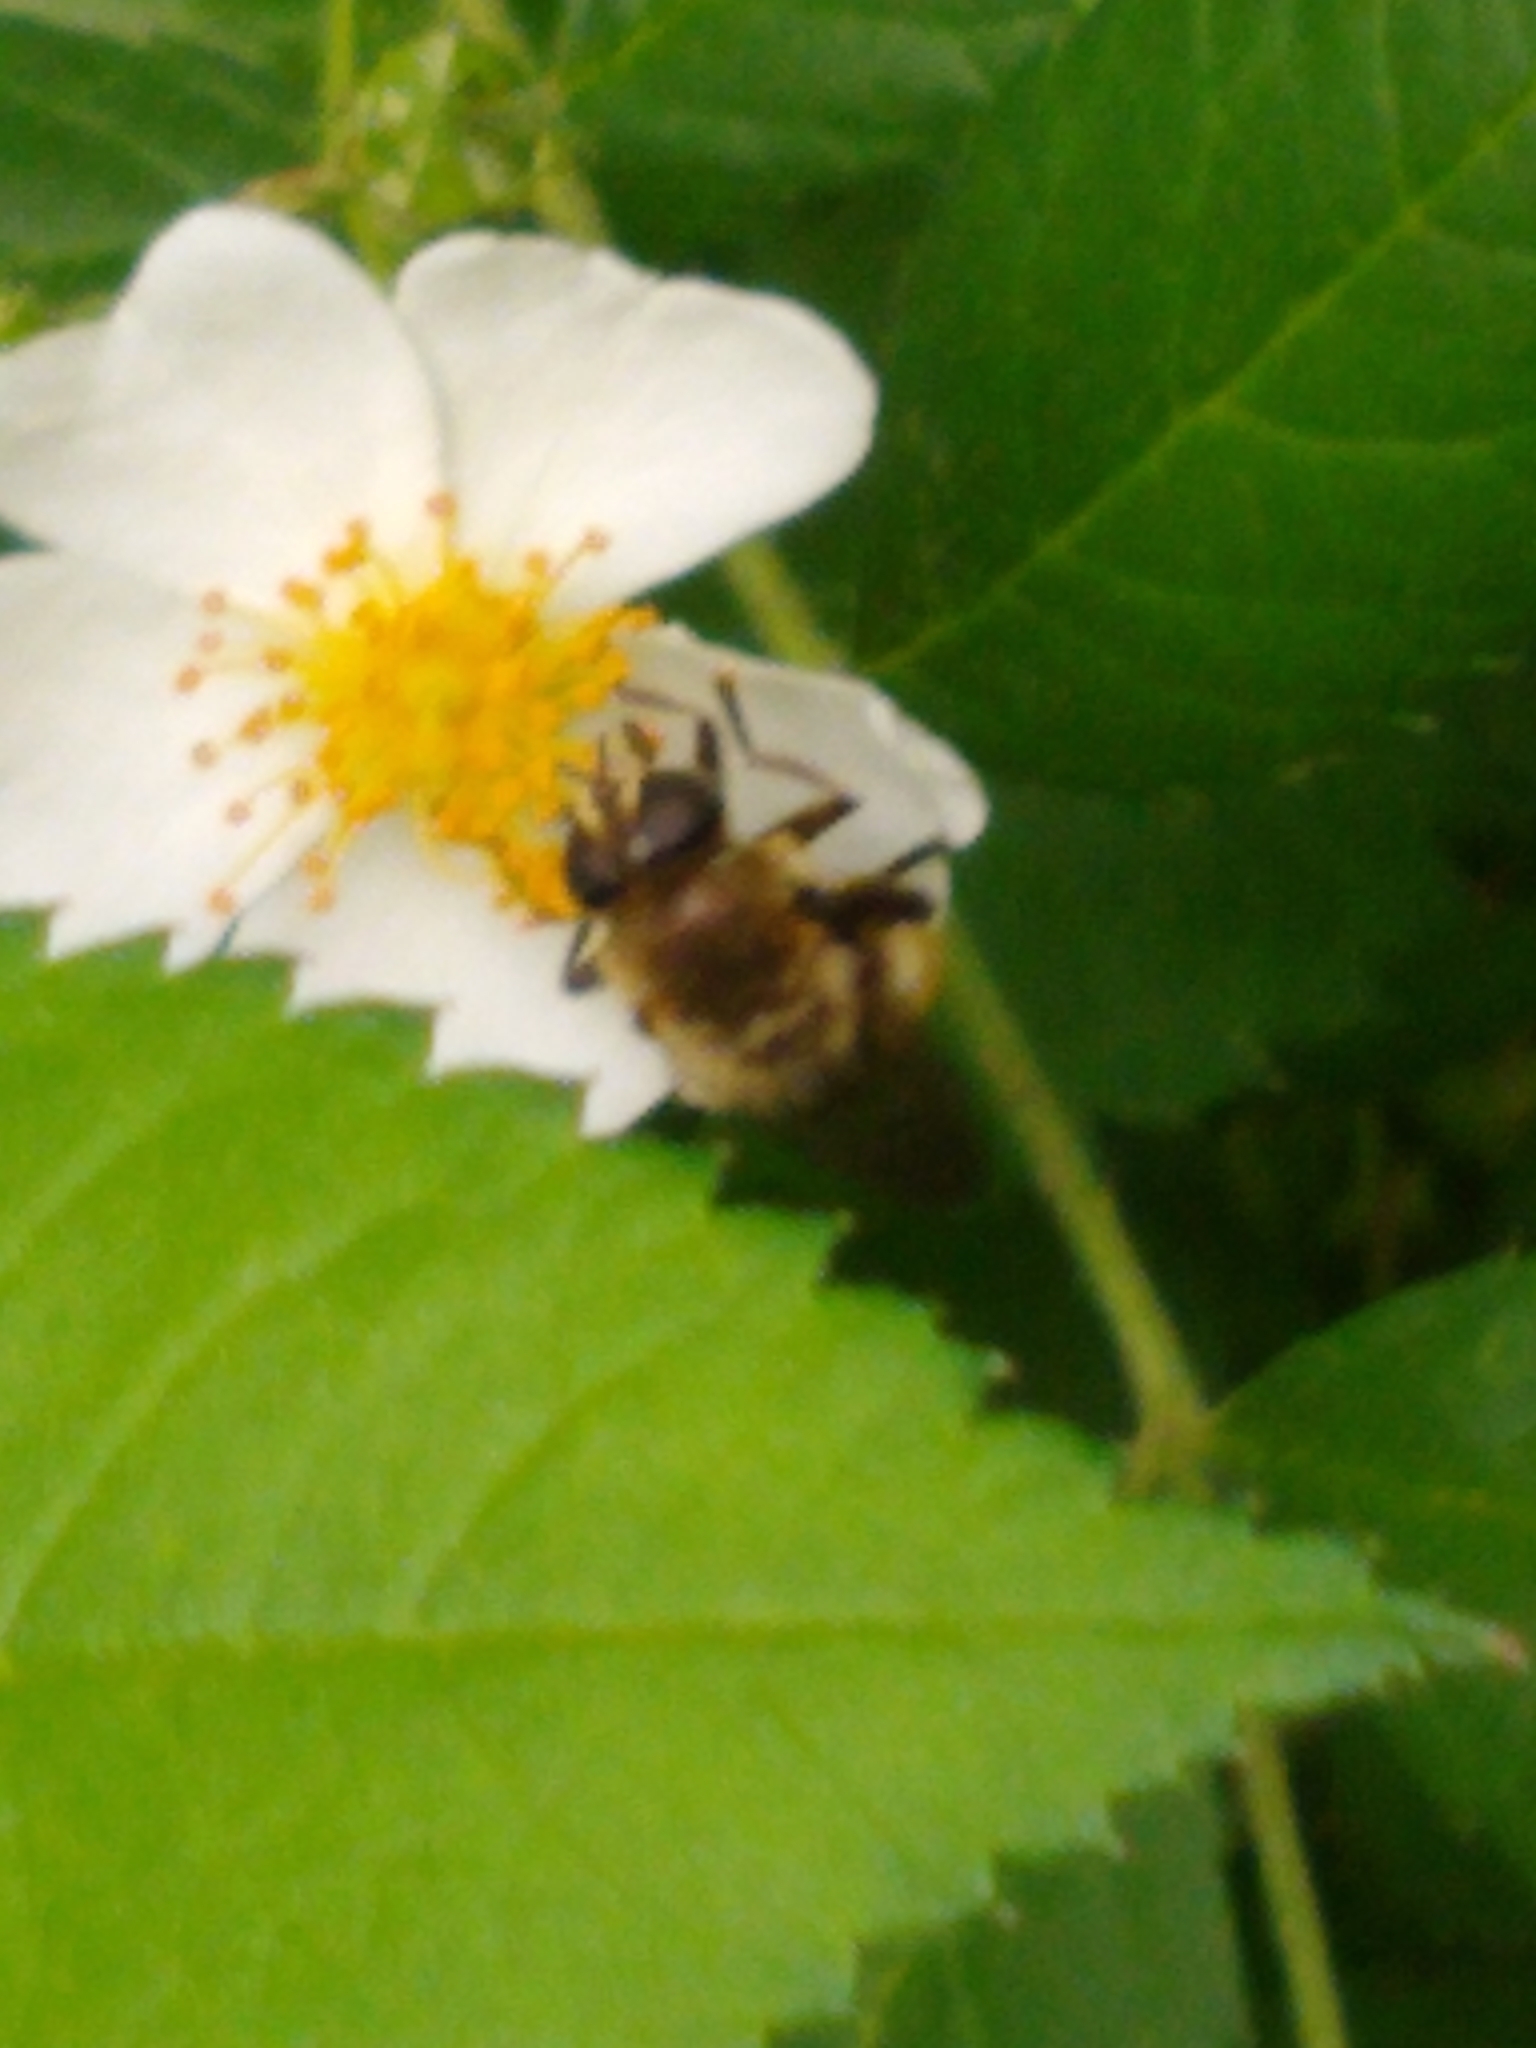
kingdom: Animalia
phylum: Arthropoda
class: Insecta
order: Diptera
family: Syrphidae
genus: Merodon
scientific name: Merodon equestris
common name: Greater bulb-fly
